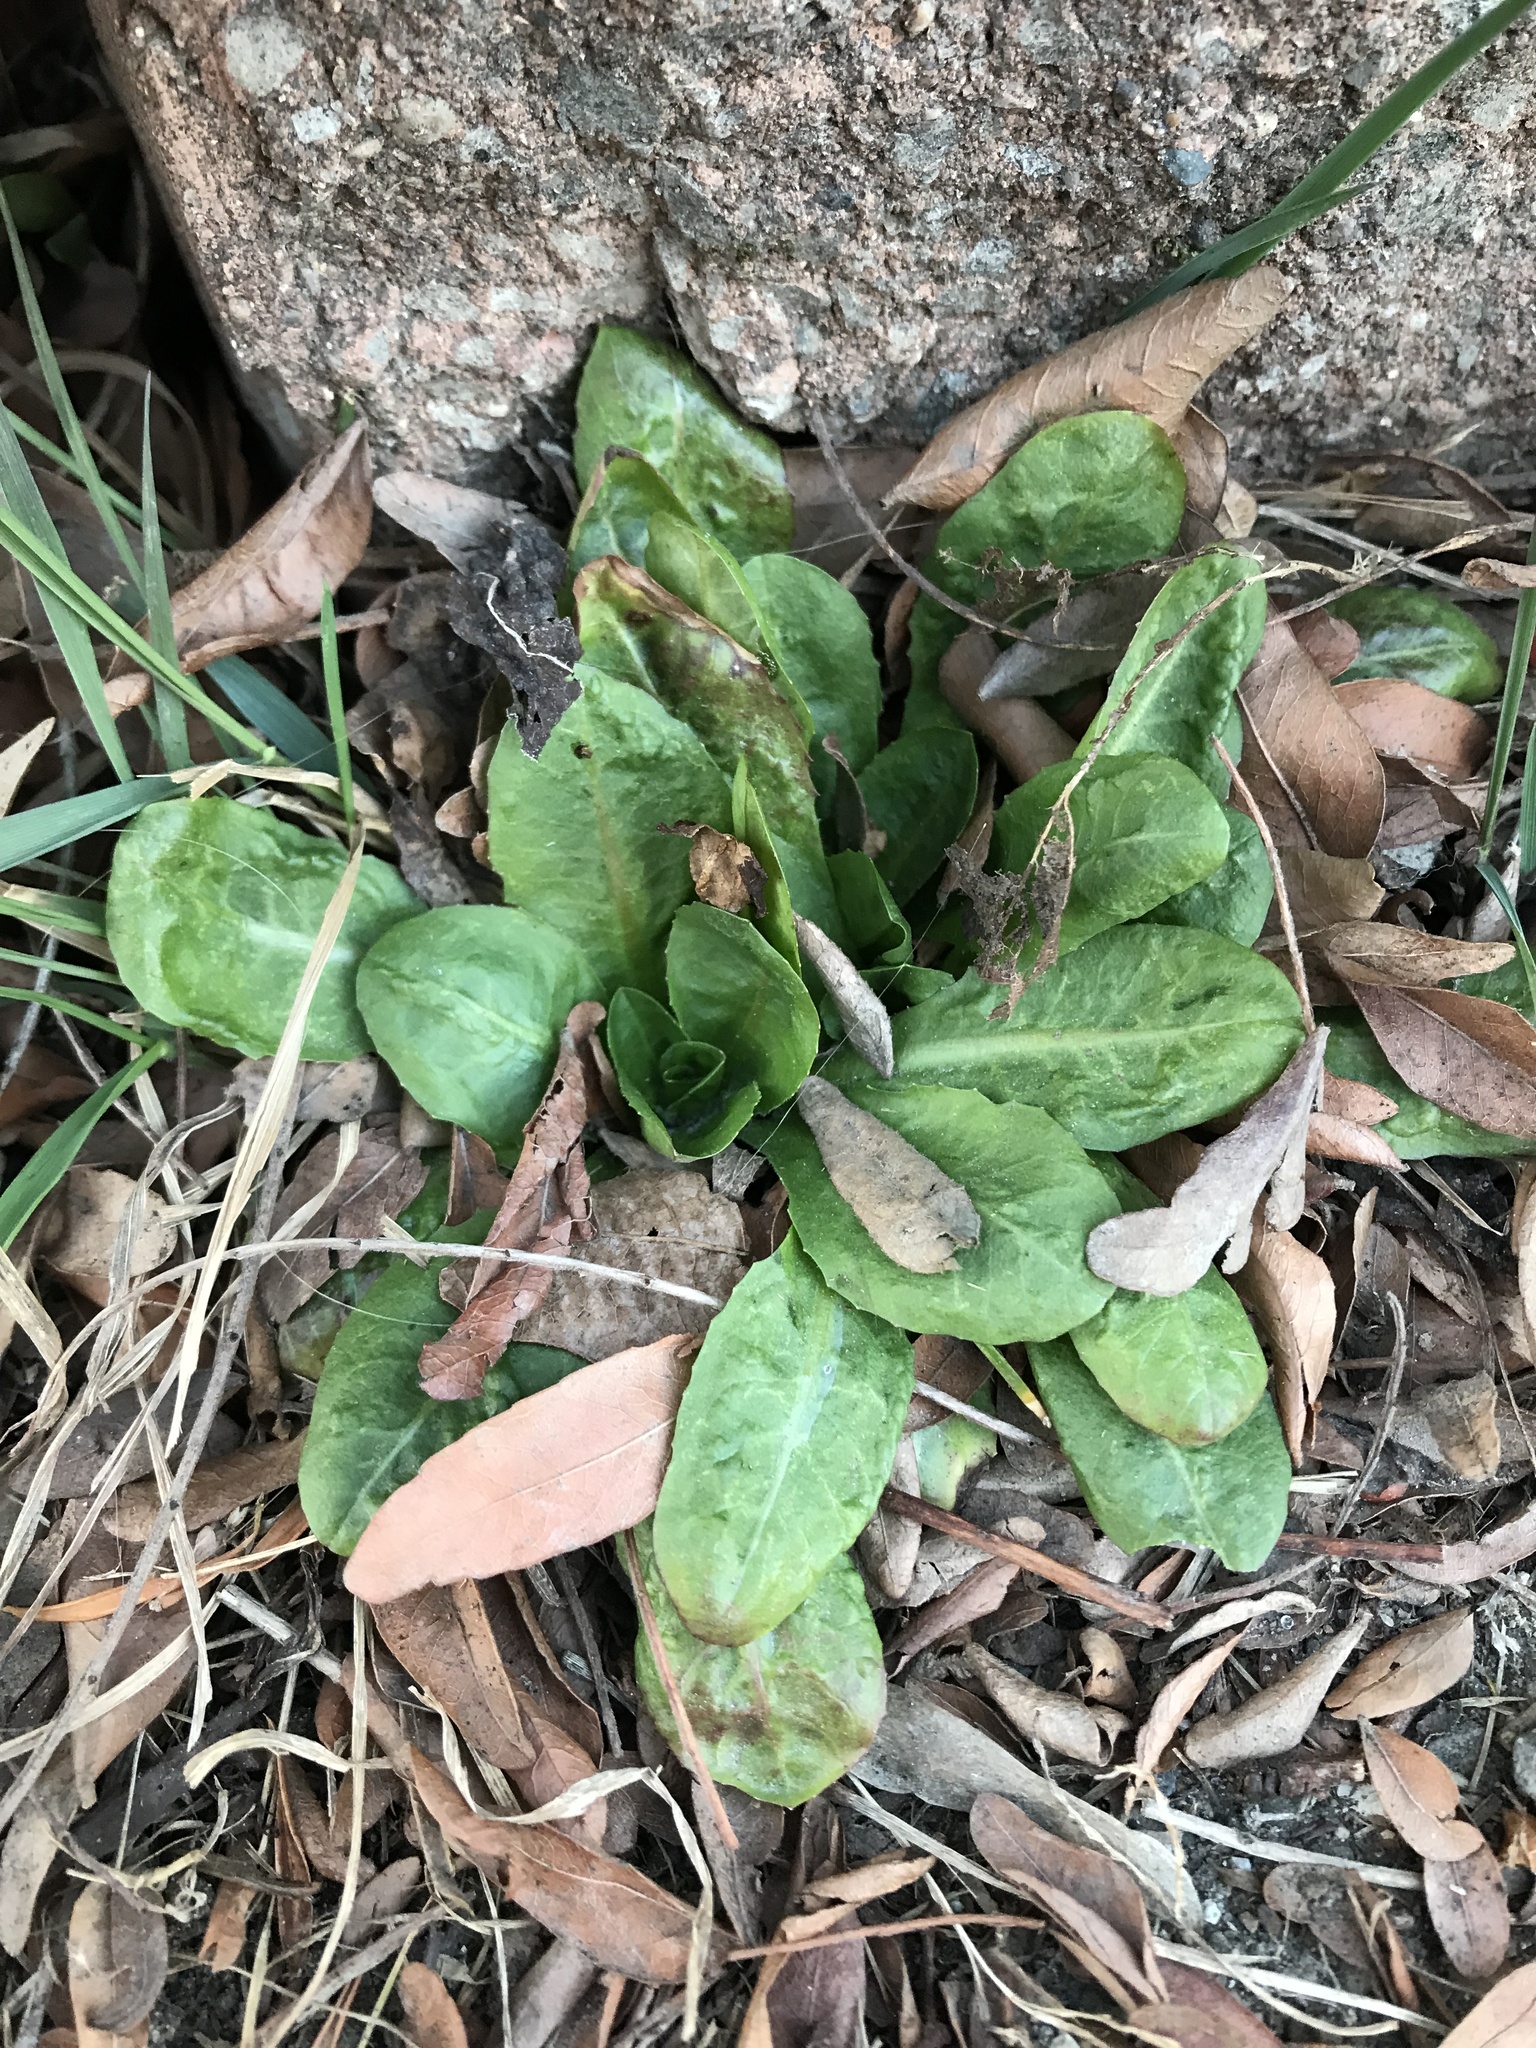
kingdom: Plantae
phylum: Tracheophyta
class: Magnoliopsida
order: Ericales
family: Primulaceae
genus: Primula
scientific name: Primula vulgaris
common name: Primrose
